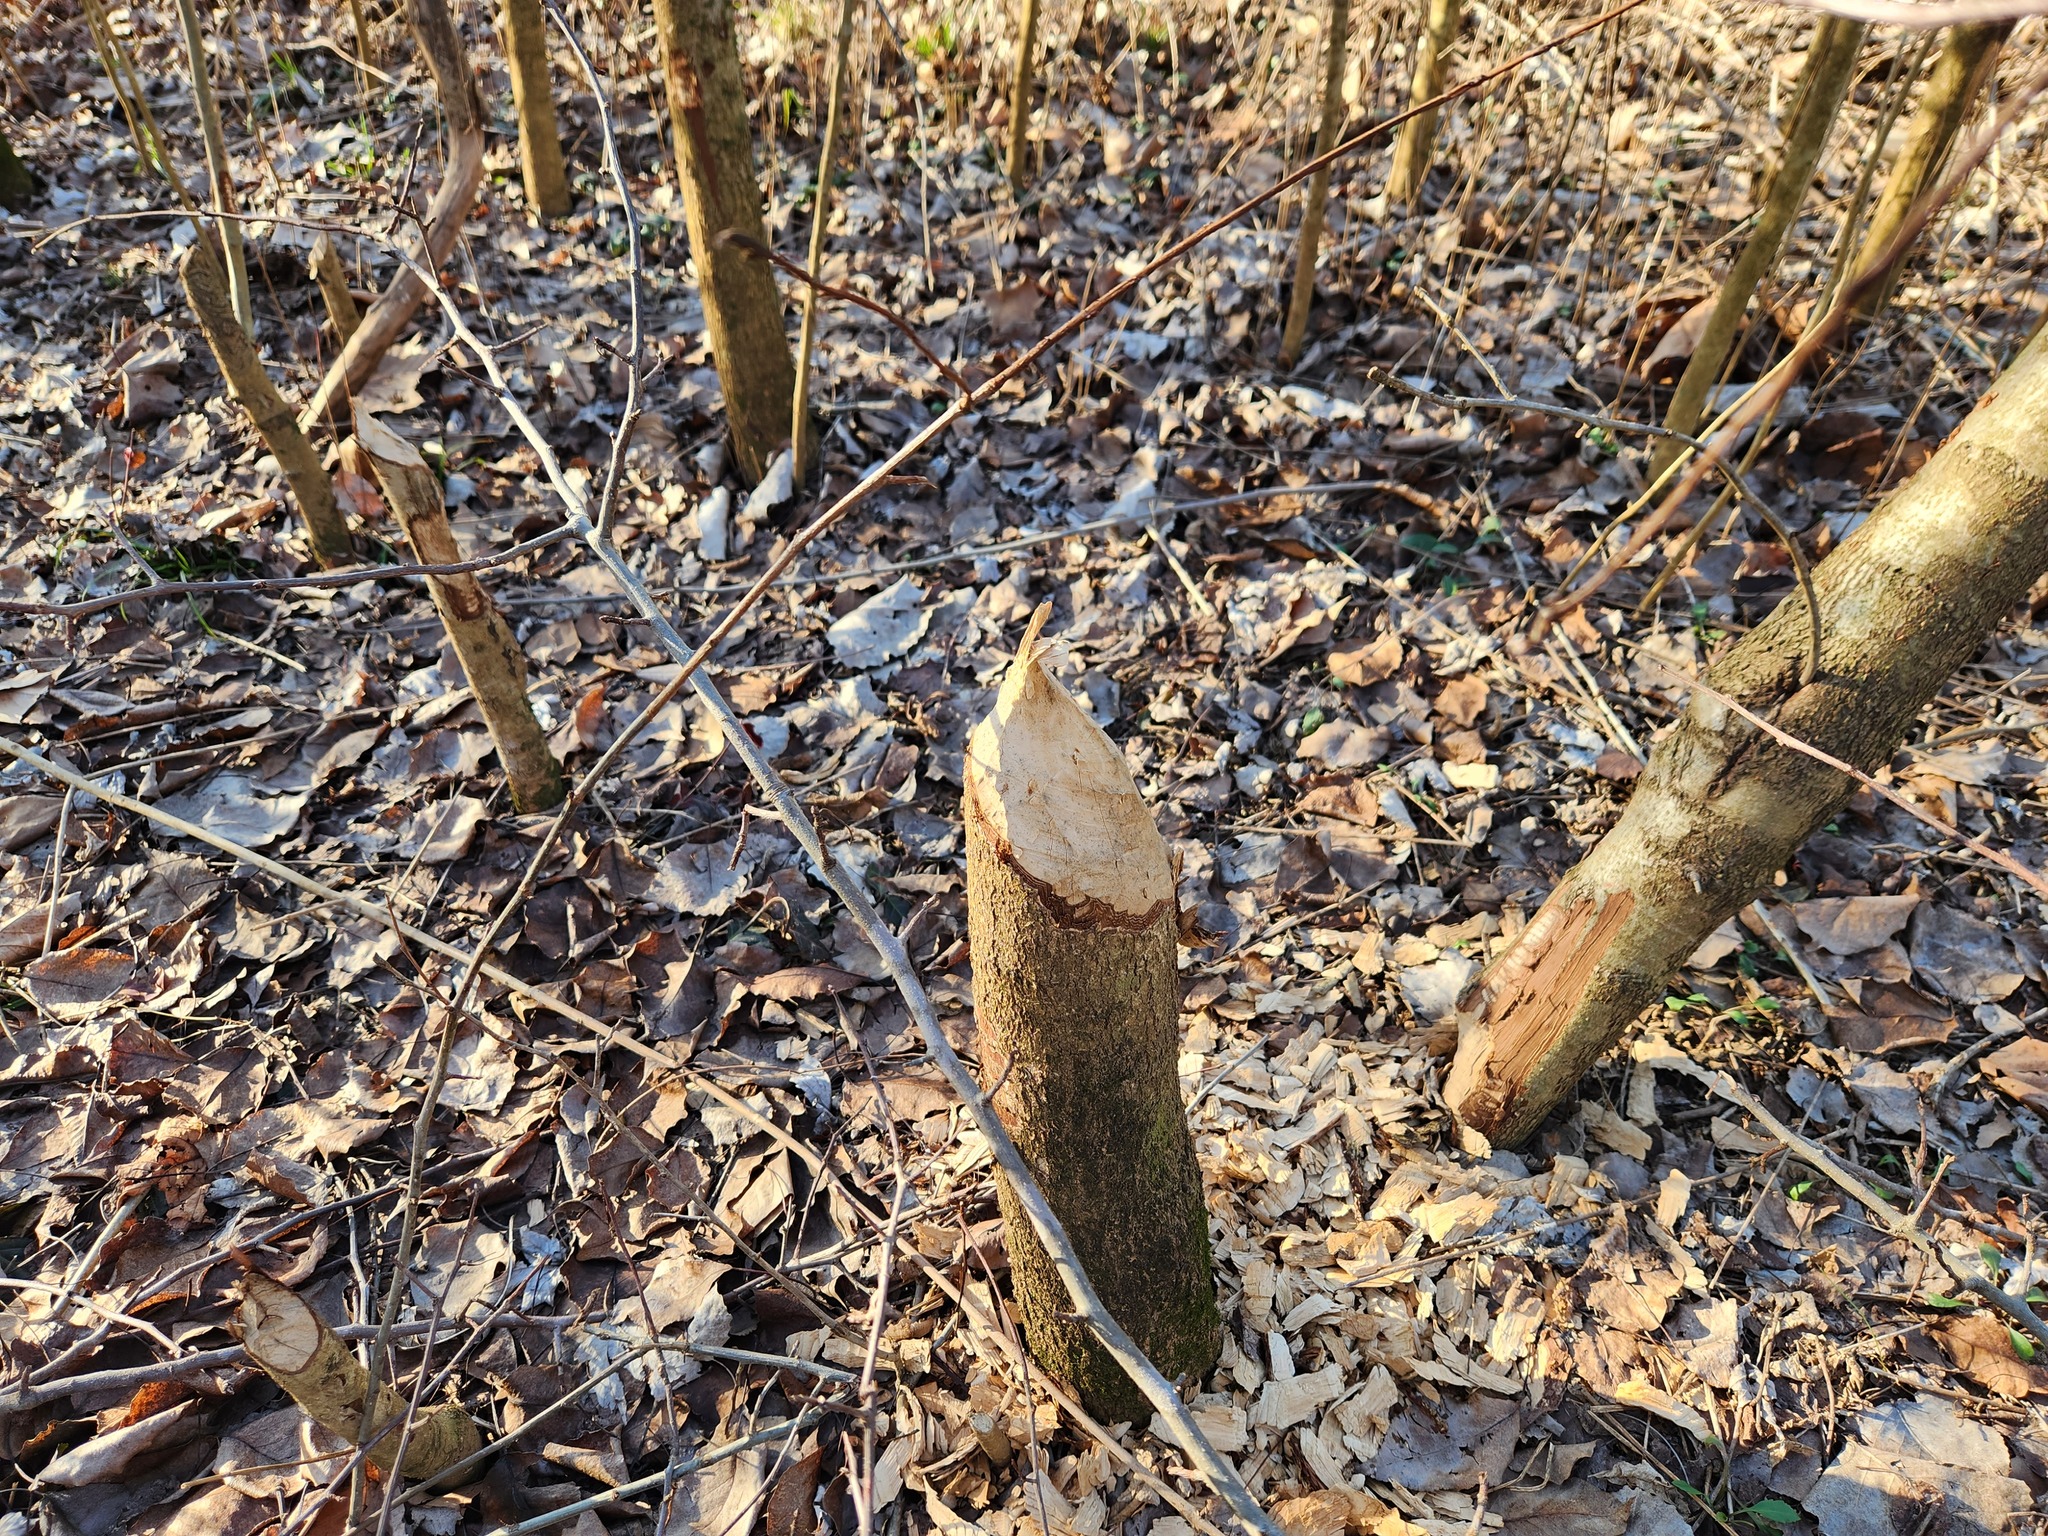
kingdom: Animalia
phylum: Chordata
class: Mammalia
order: Rodentia
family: Castoridae
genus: Castor
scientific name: Castor canadensis
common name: American beaver
